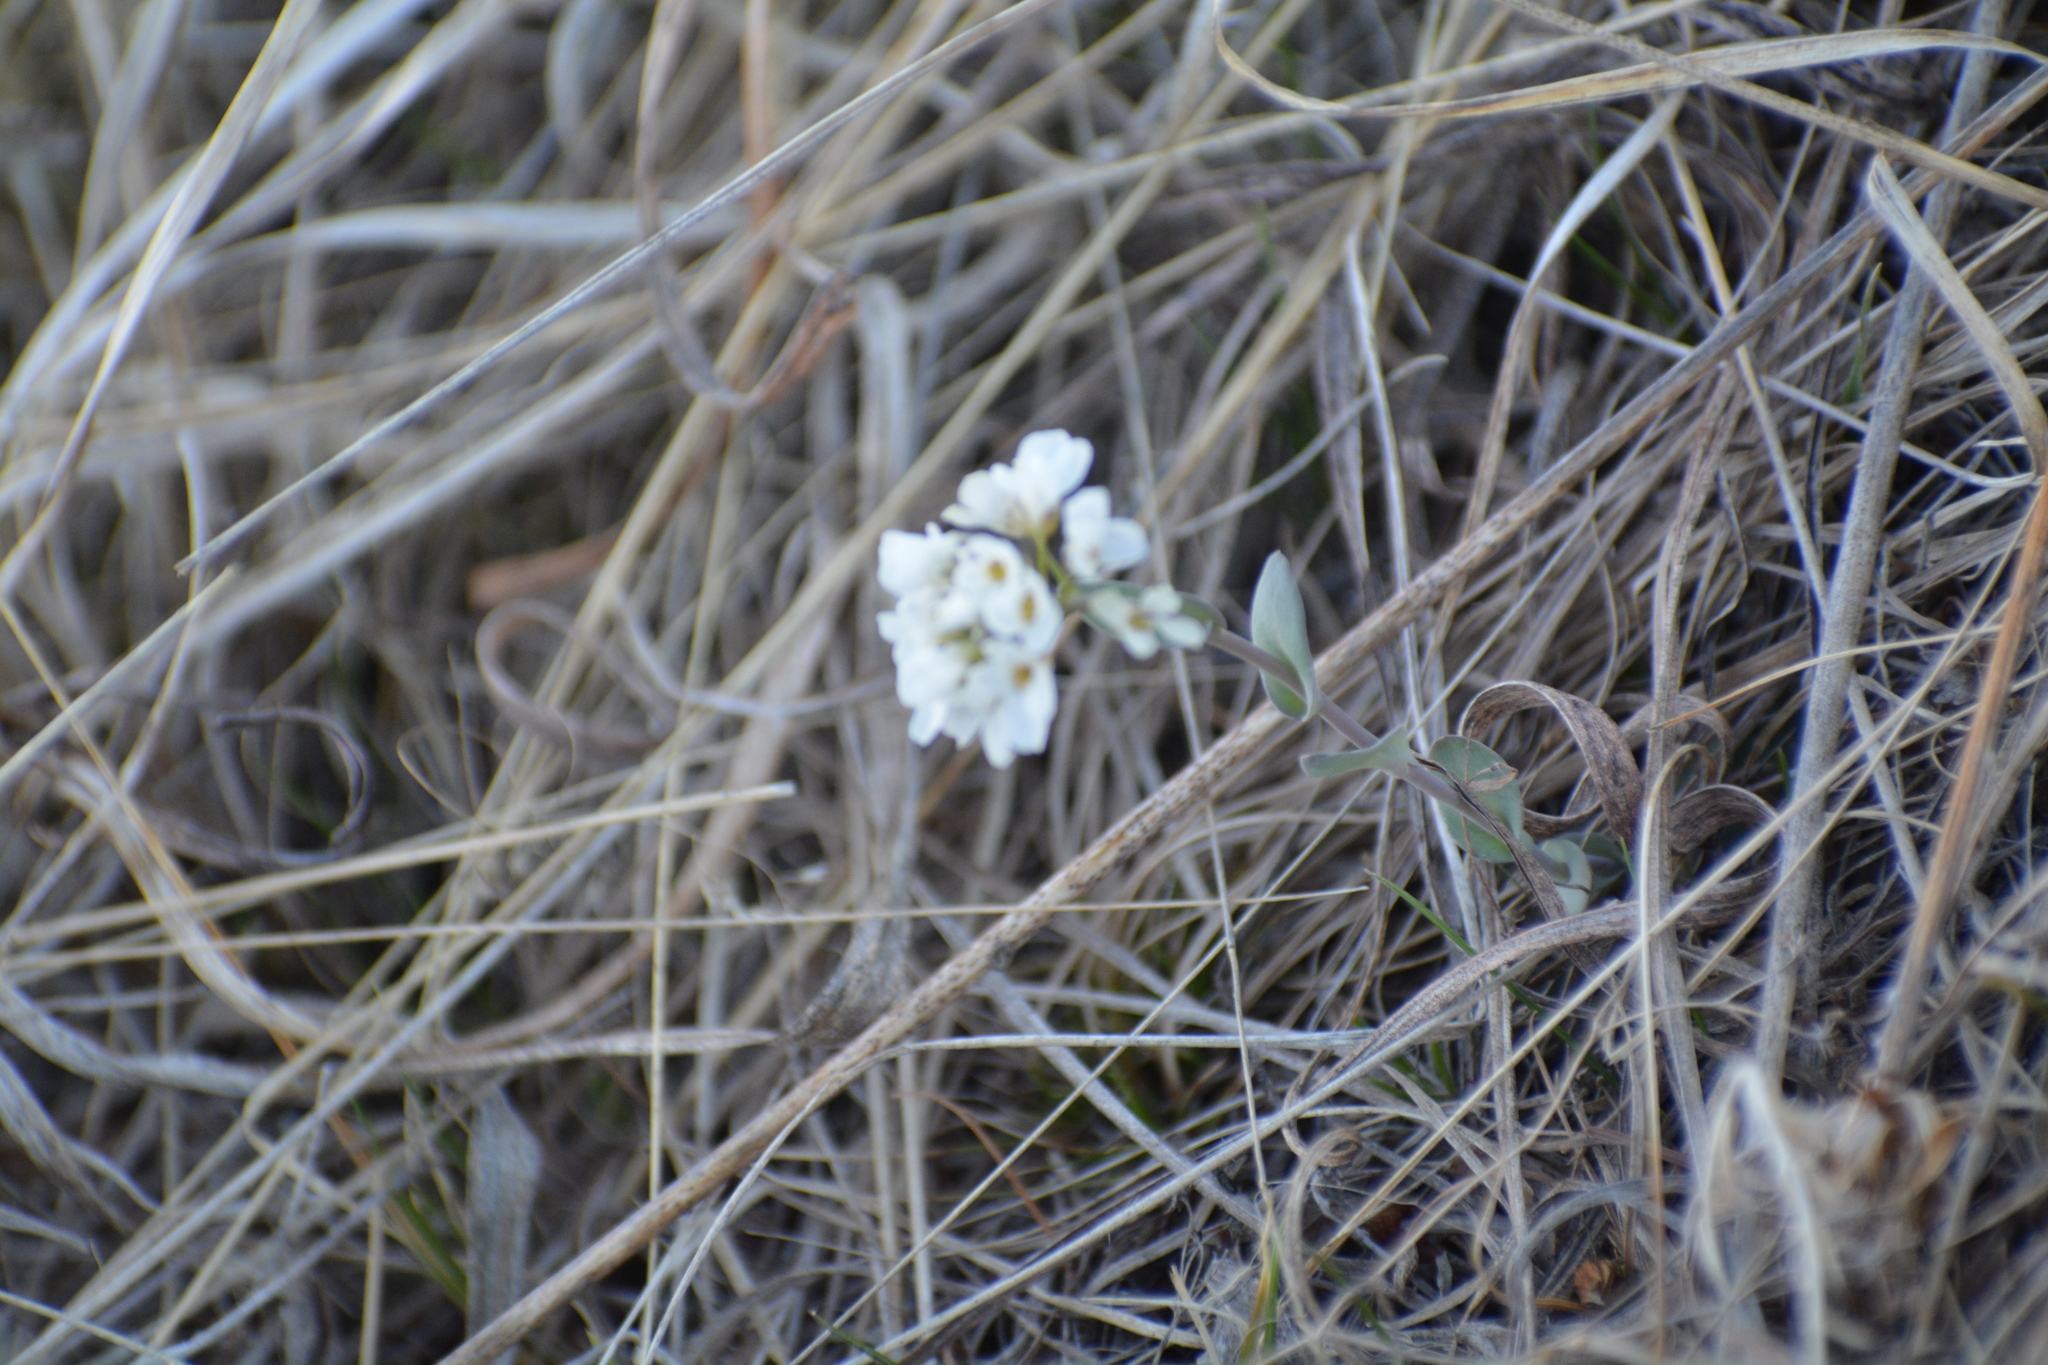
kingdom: Plantae
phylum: Tracheophyta
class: Magnoliopsida
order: Brassicales
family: Brassicaceae
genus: Noccaea
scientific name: Noccaea thlaspidioides
